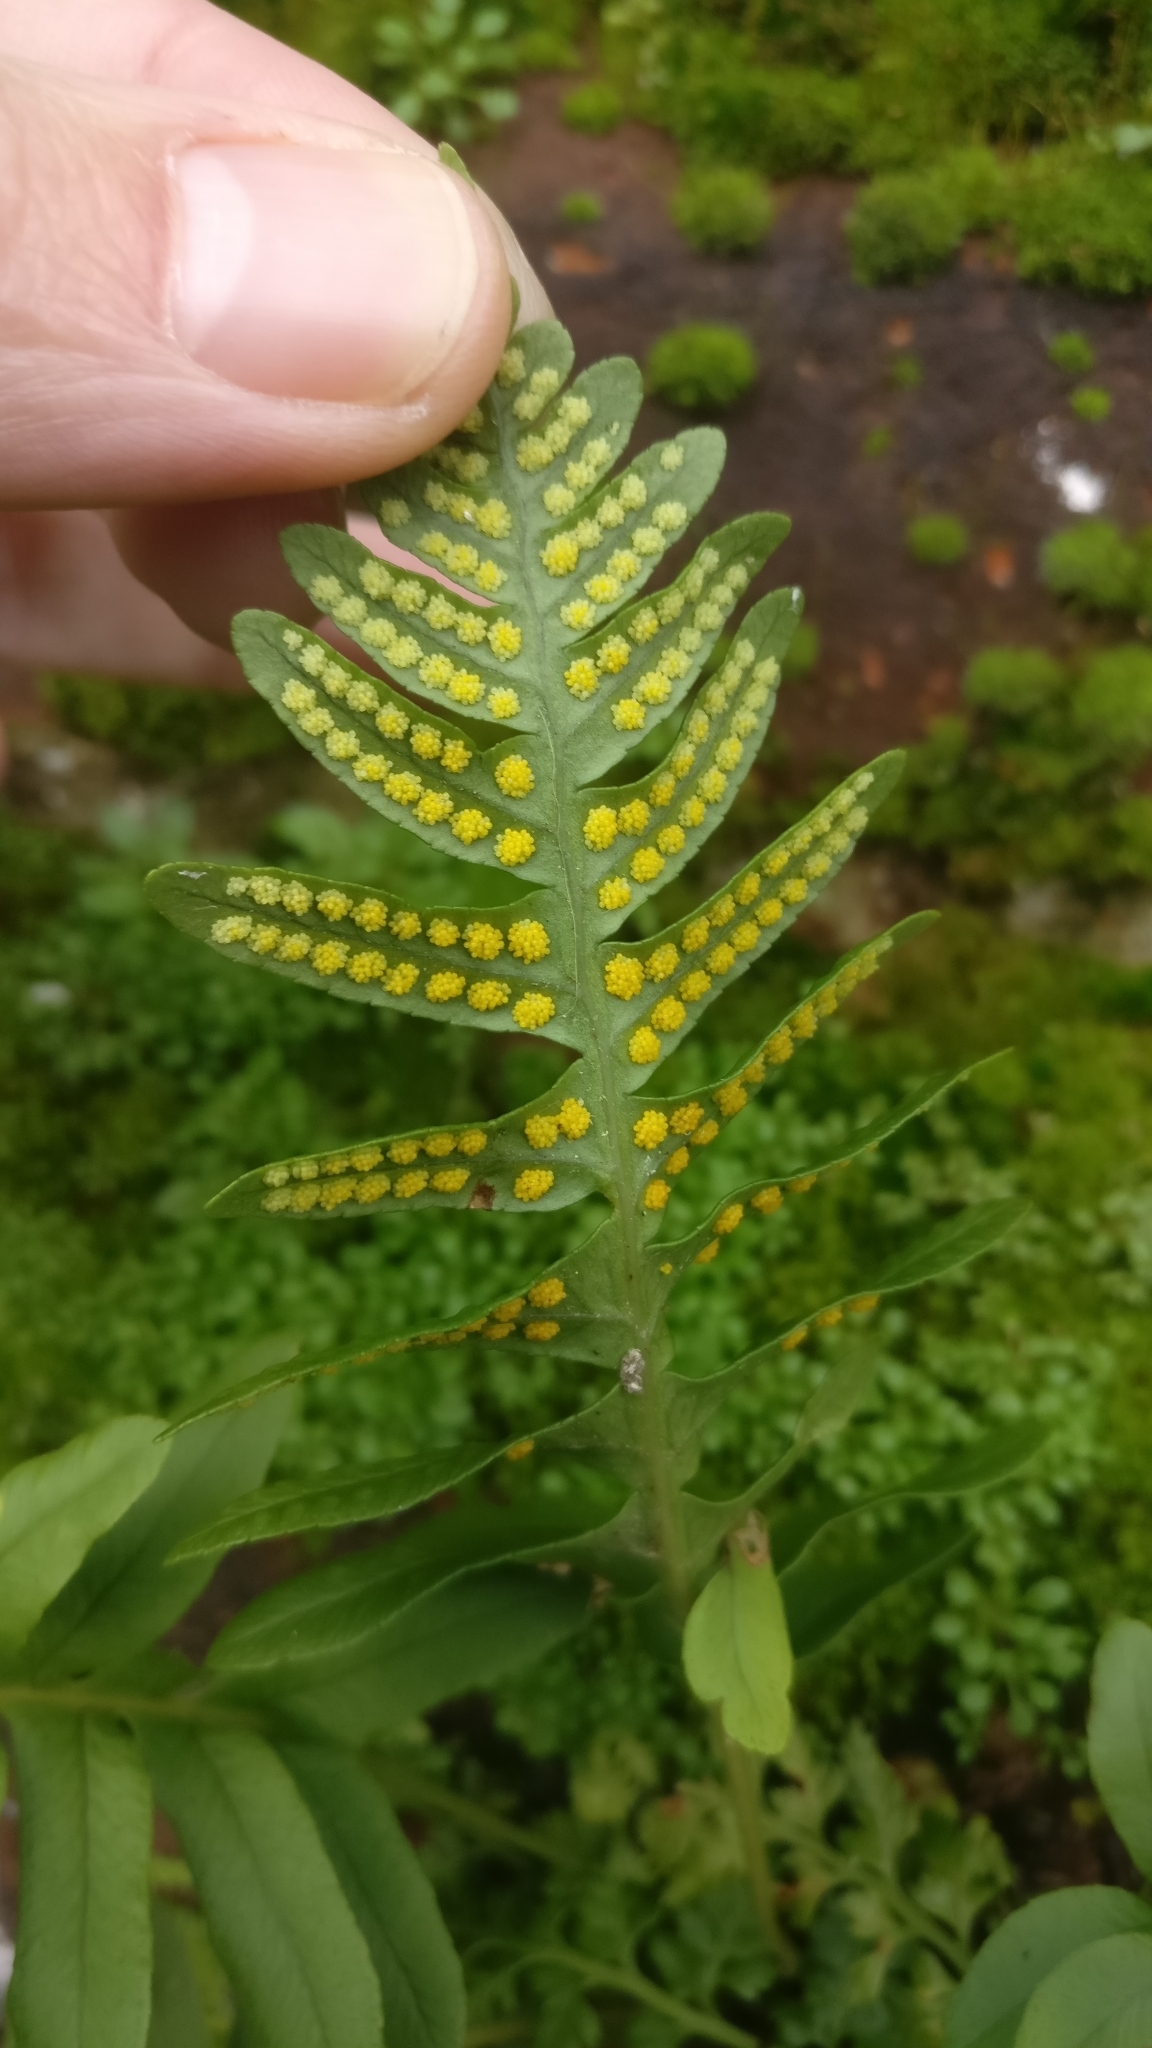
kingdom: Plantae
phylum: Tracheophyta
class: Polypodiopsida
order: Polypodiales
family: Polypodiaceae
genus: Polypodium
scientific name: Polypodium
